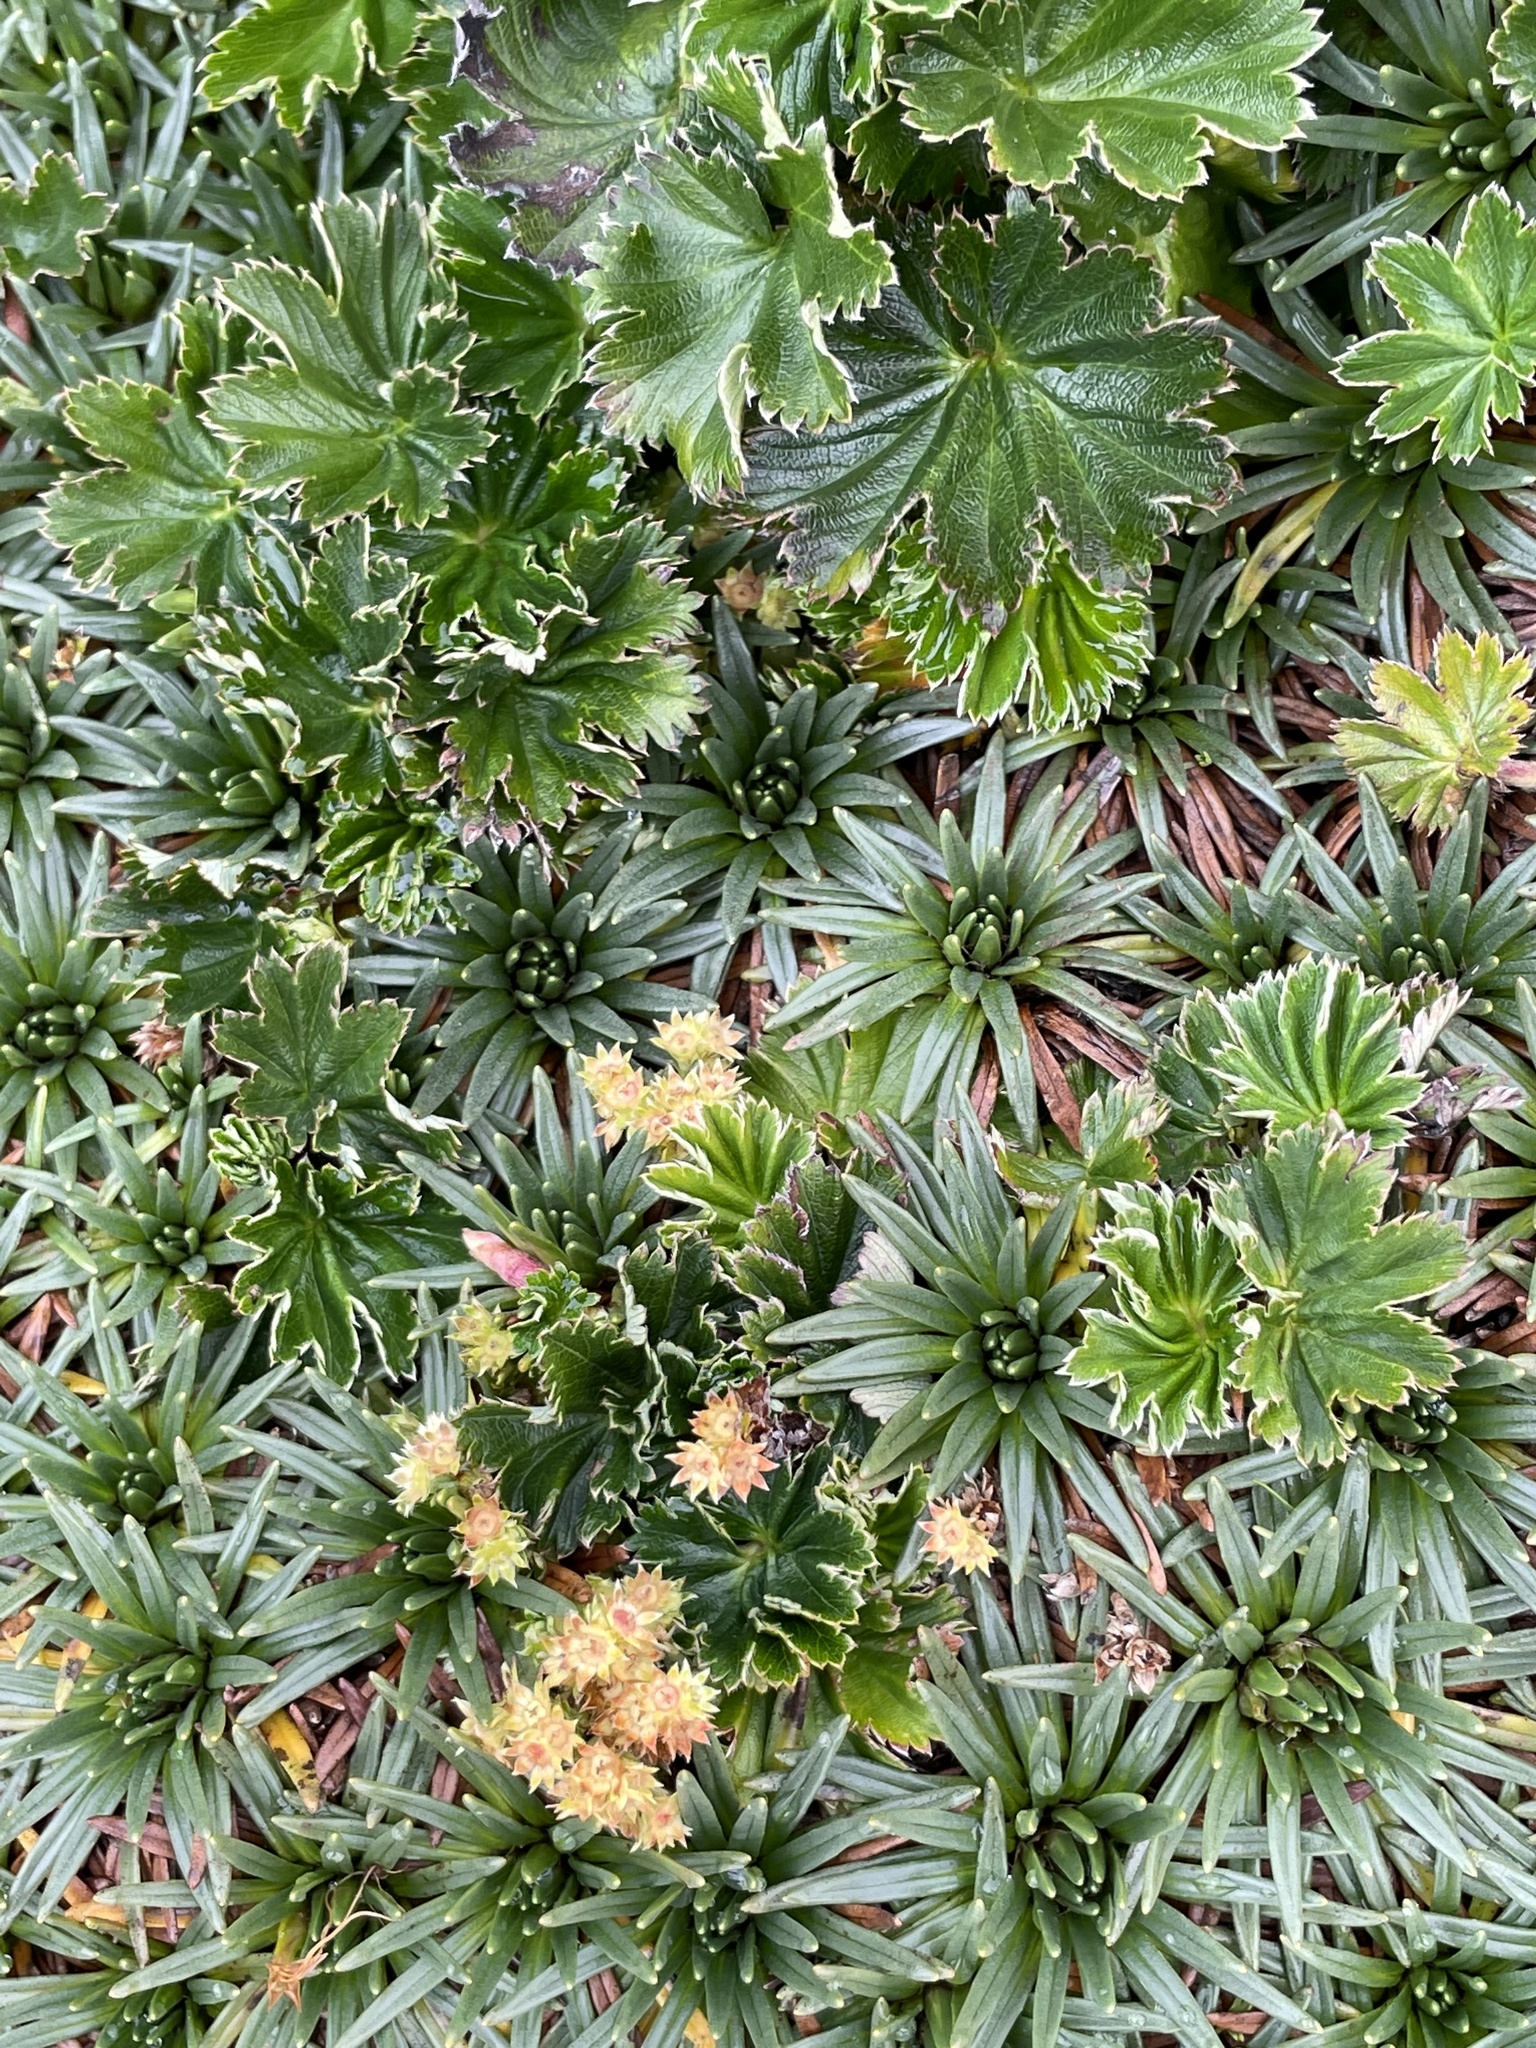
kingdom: Plantae
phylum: Tracheophyta
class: Magnoliopsida
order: Lamiales
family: Plantaginaceae
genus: Plantago
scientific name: Plantago rigida
